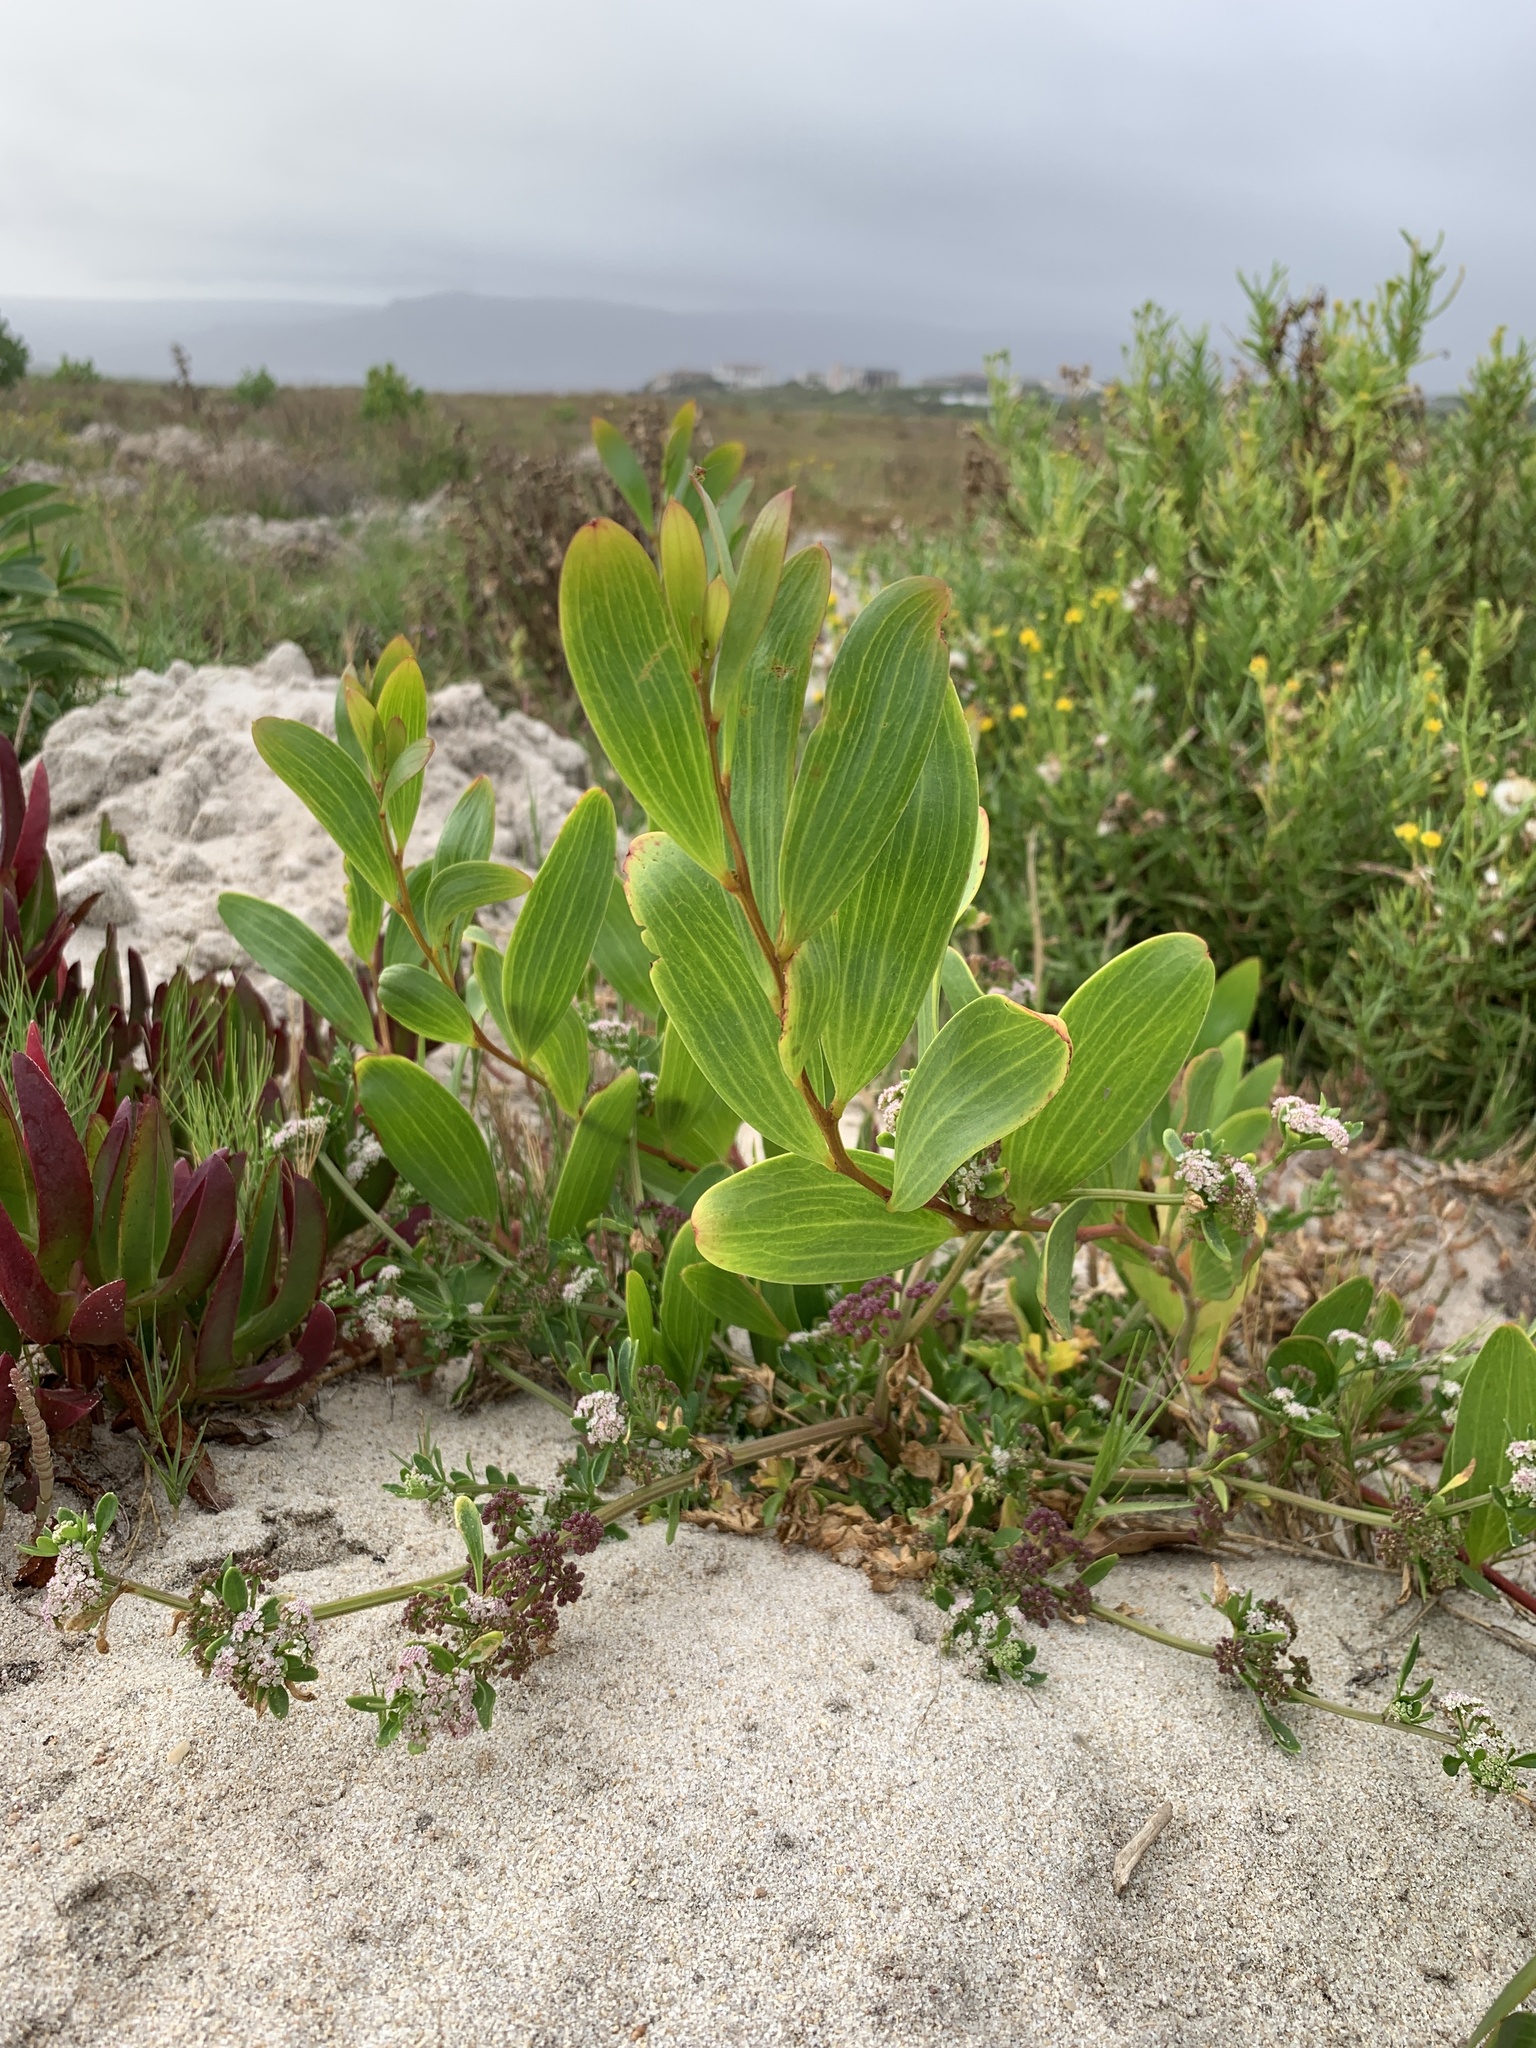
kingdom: Plantae
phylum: Tracheophyta
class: Magnoliopsida
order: Fabales
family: Fabaceae
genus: Acacia
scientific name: Acacia cyclops
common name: Coastal wattle
